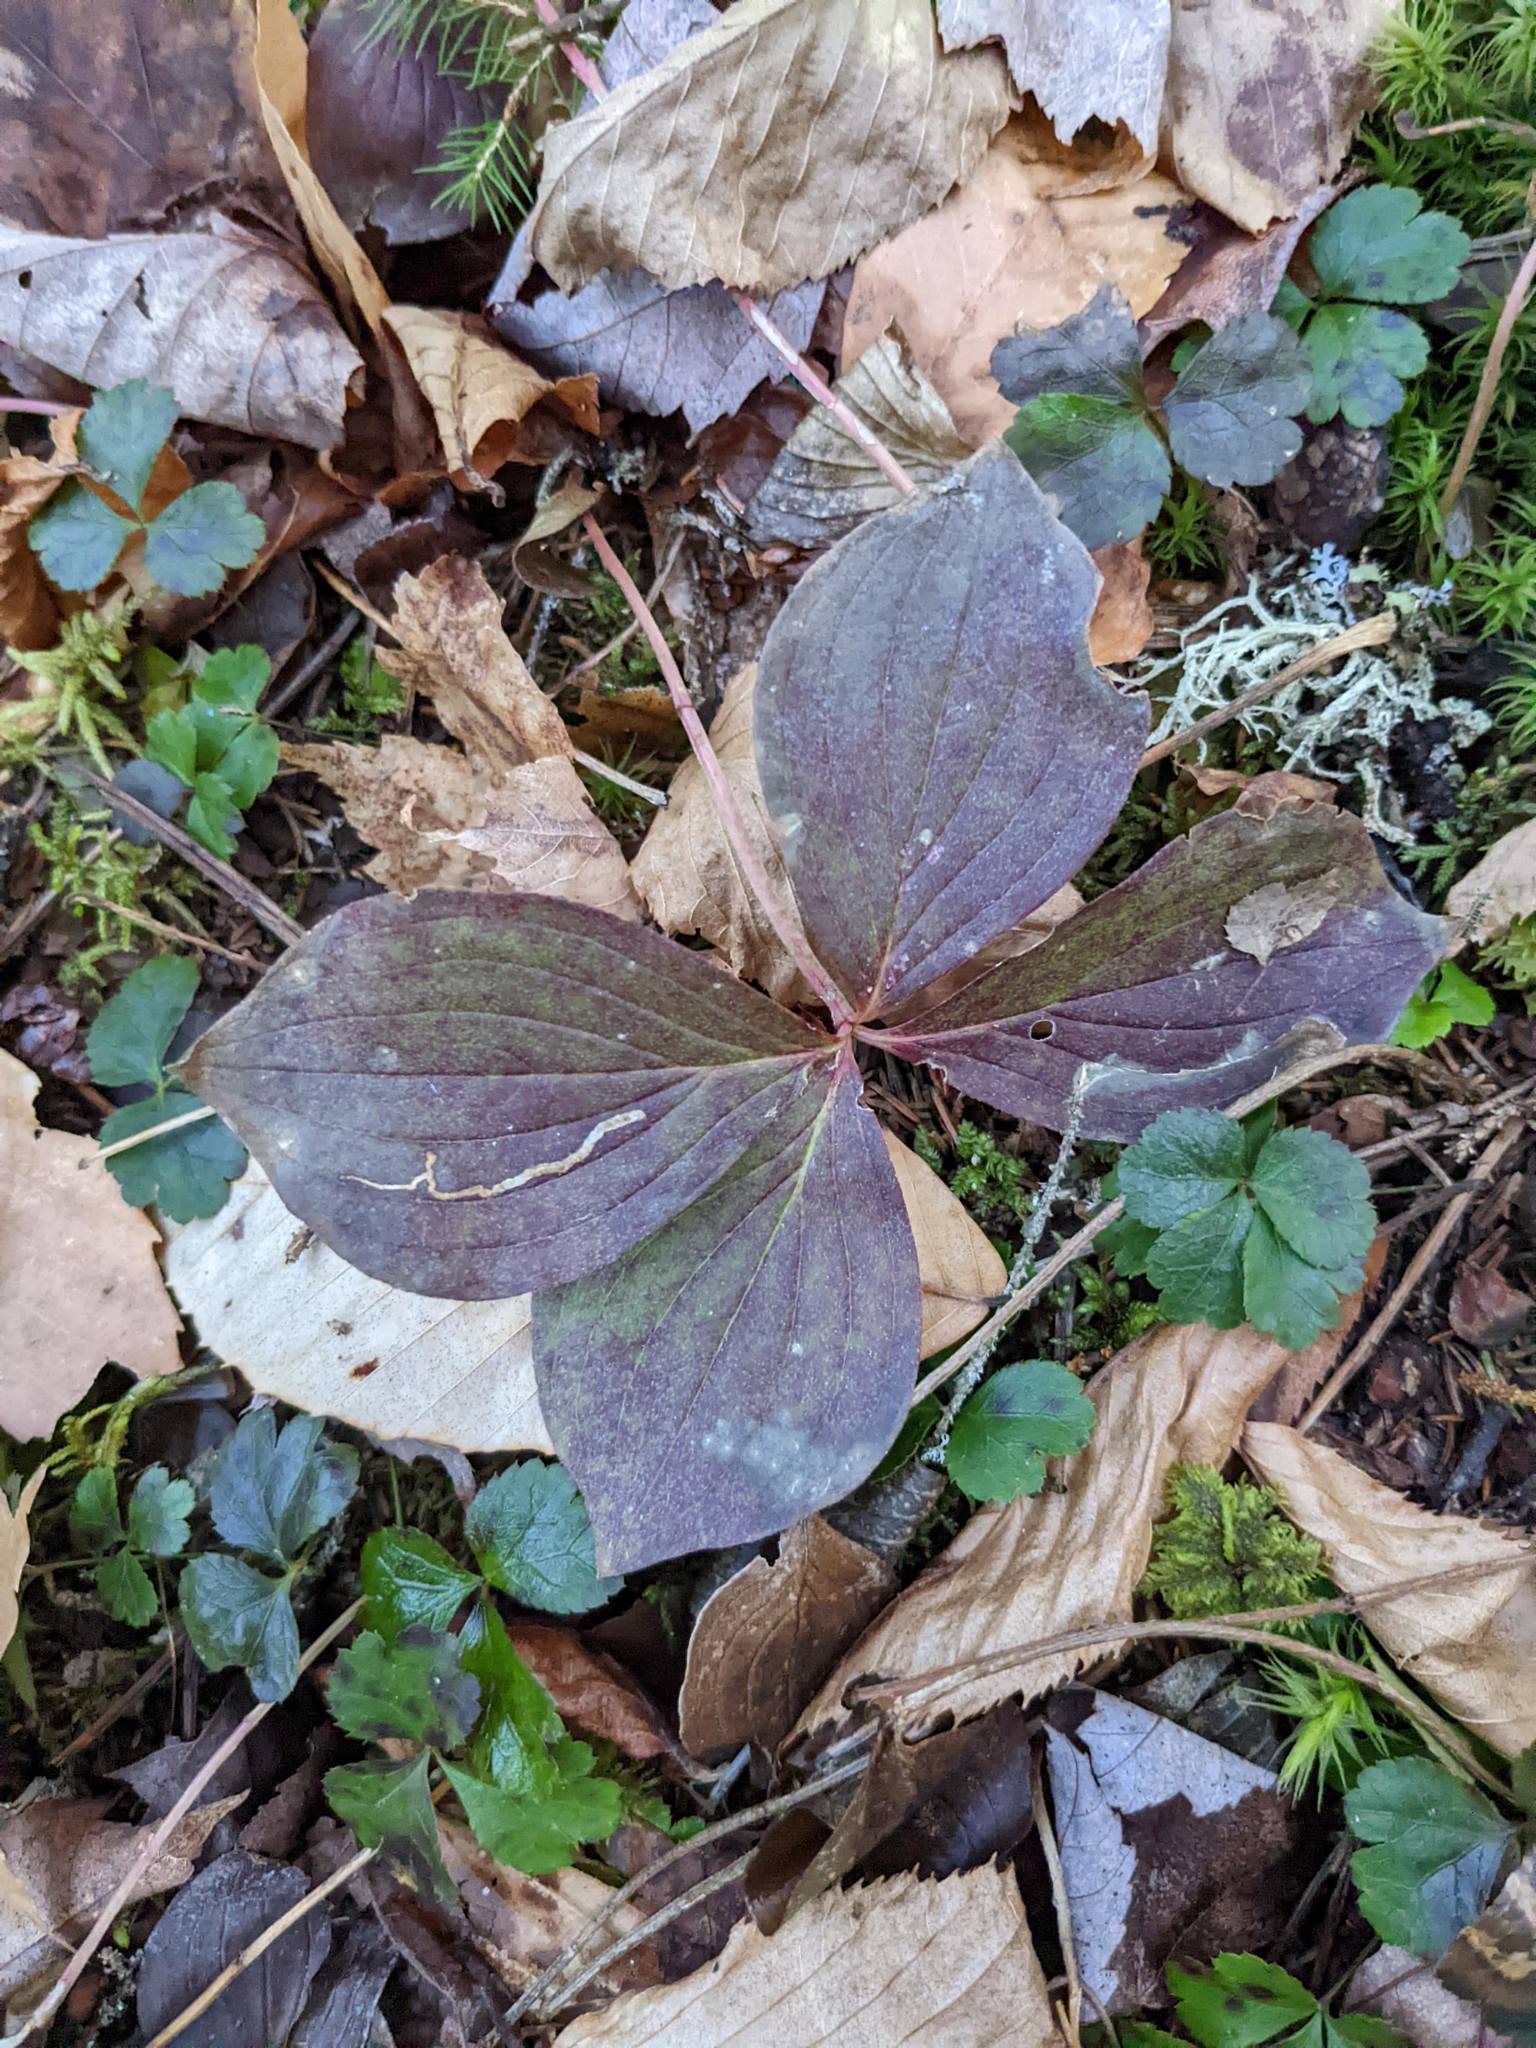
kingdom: Plantae
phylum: Tracheophyta
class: Magnoliopsida
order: Cornales
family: Cornaceae
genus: Cornus
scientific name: Cornus canadensis
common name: Creeping dogwood
